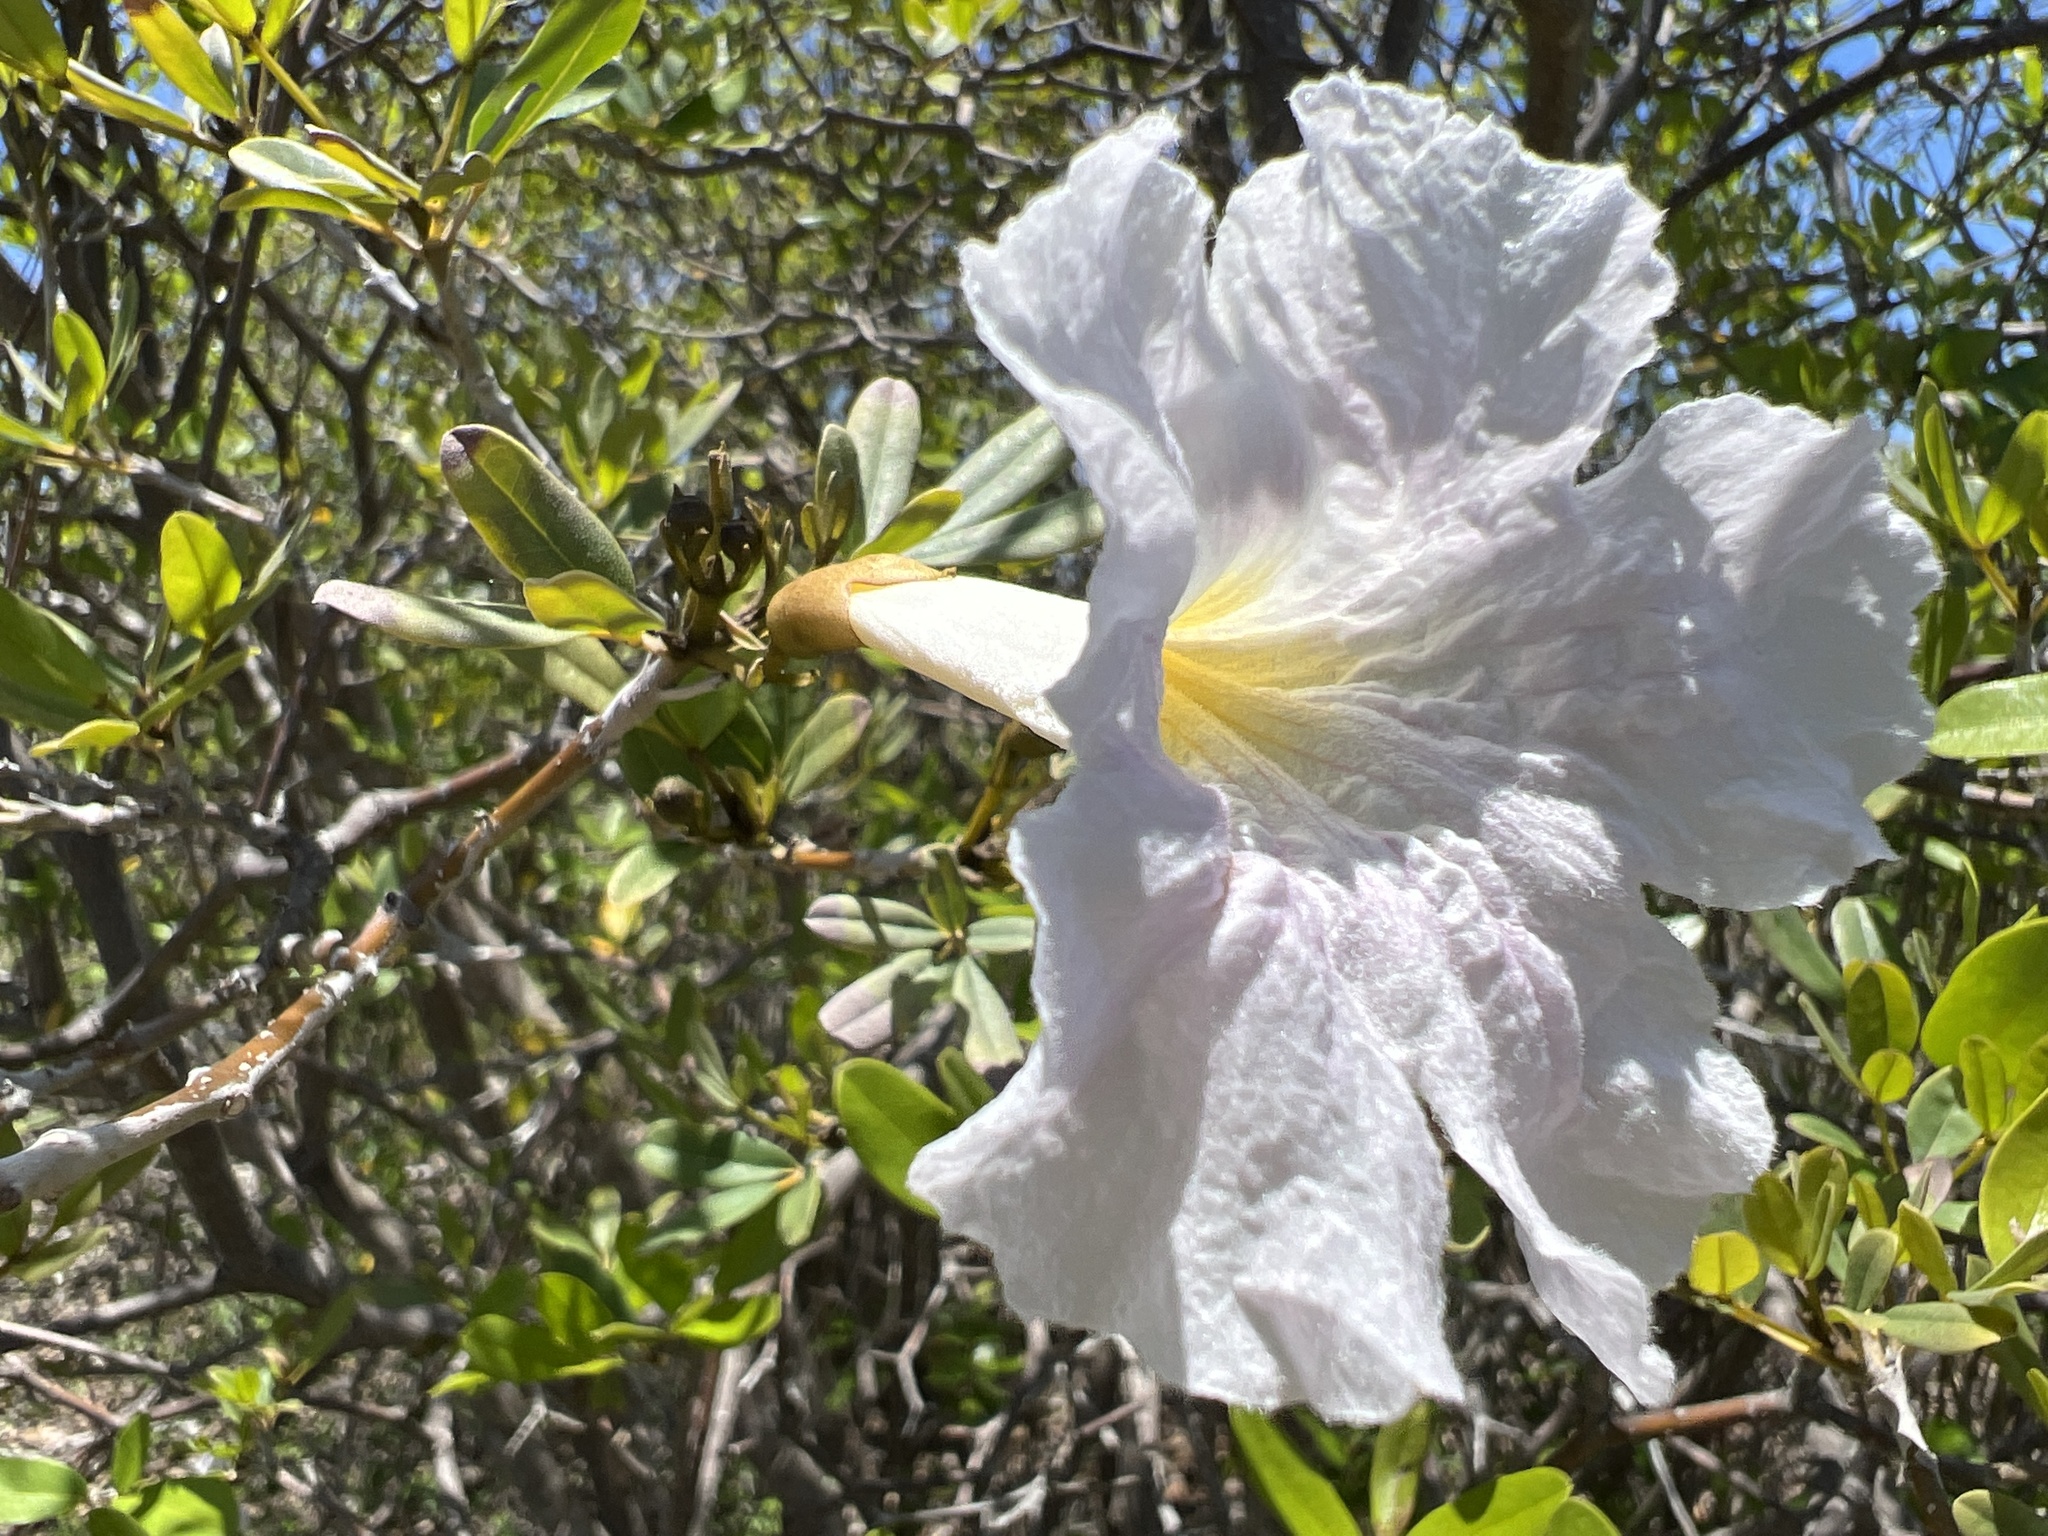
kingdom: Plantae
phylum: Tracheophyta
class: Magnoliopsida
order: Lamiales
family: Bignoniaceae
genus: Tabebuia
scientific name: Tabebuia heterophylla
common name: White cedar
